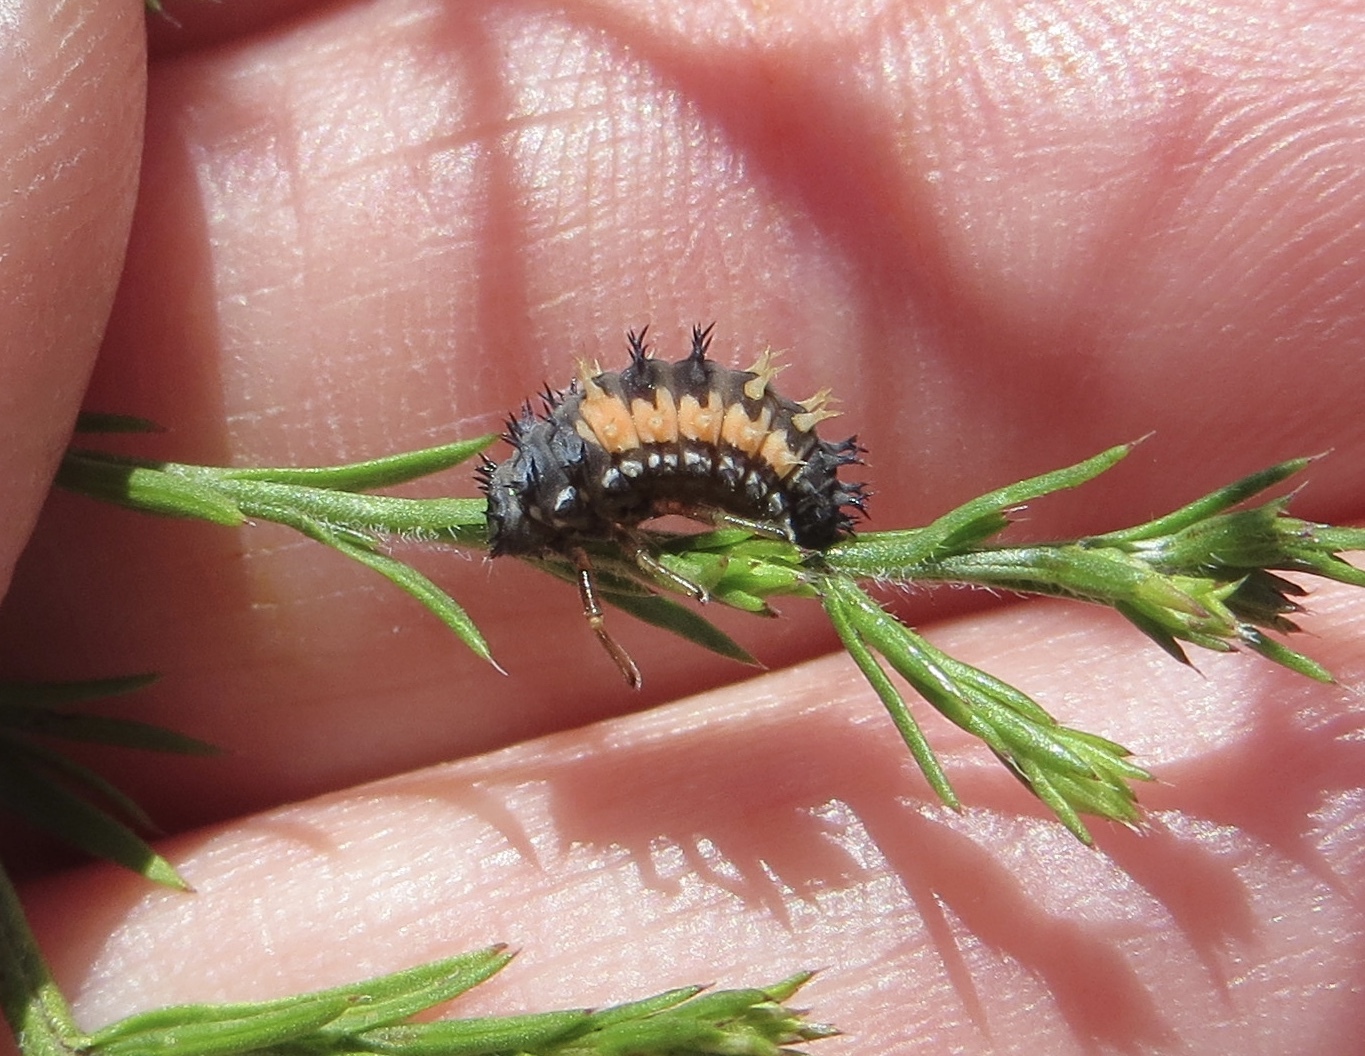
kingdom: Animalia
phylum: Arthropoda
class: Insecta
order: Coleoptera
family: Coccinellidae
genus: Harmonia
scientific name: Harmonia axyridis
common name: Harlequin ladybird
